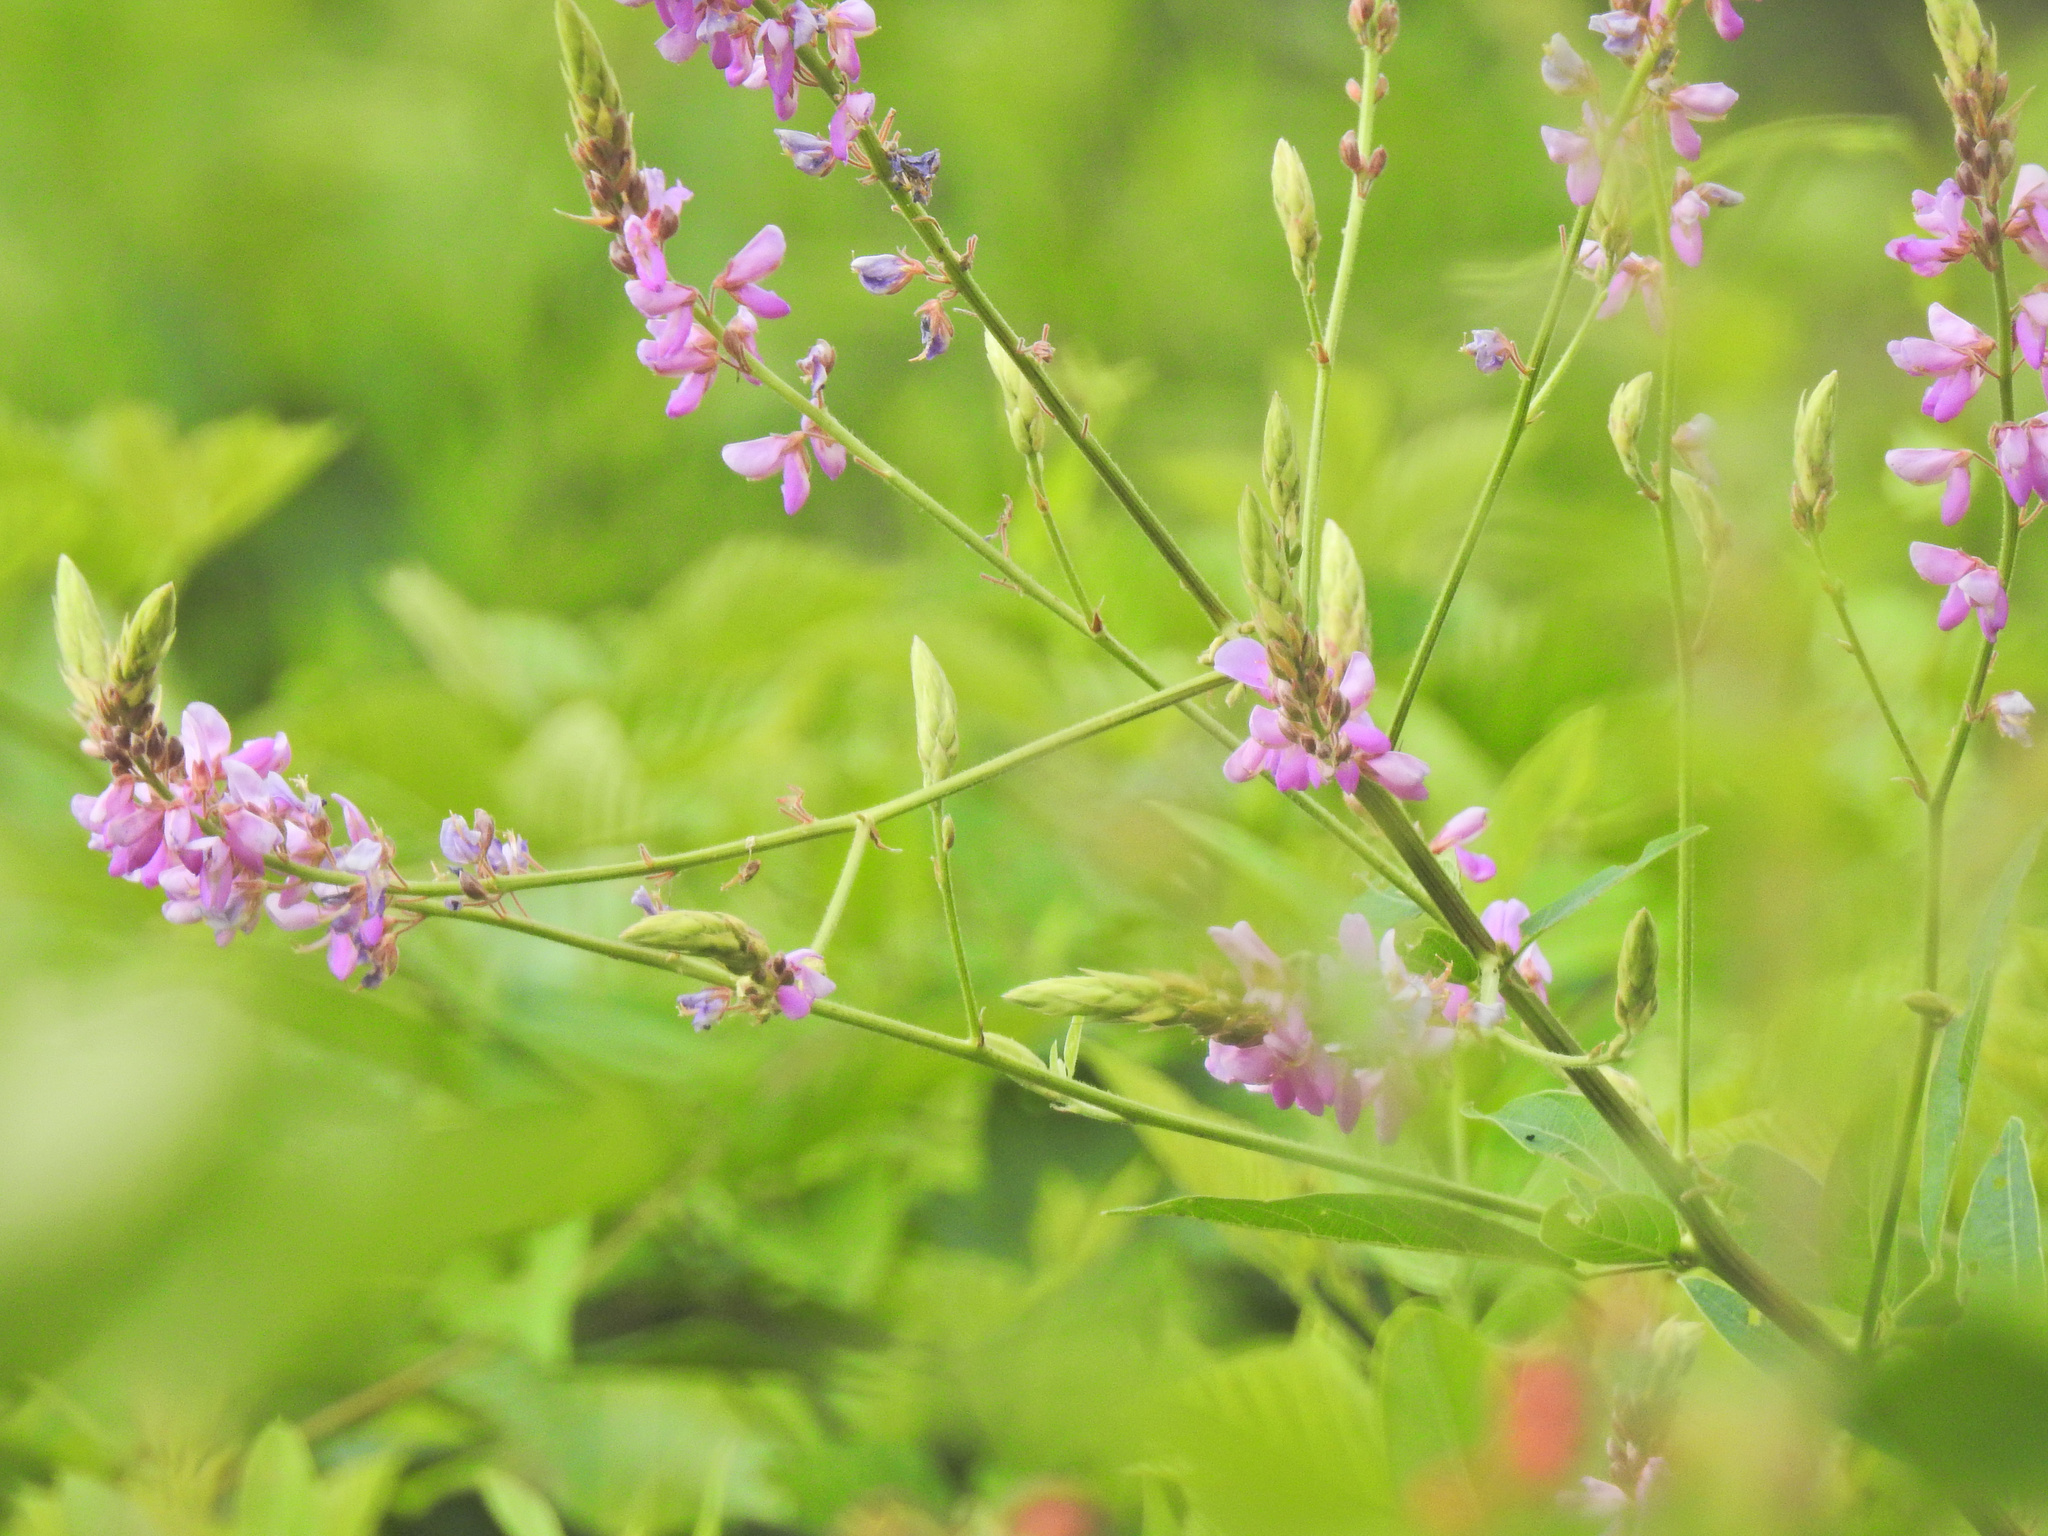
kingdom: Plantae
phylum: Tracheophyta
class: Magnoliopsida
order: Fabales
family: Fabaceae
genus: Desmodium
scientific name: Desmodium canadense
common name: Canada tick-trefoil
